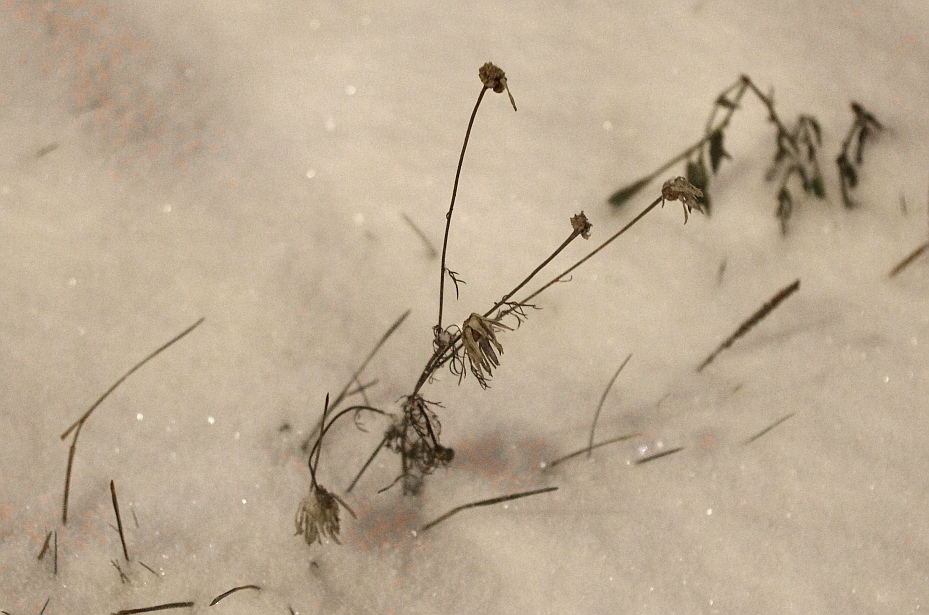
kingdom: Plantae
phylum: Tracheophyta
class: Magnoliopsida
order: Asterales
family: Asteraceae
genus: Tripleurospermum
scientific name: Tripleurospermum inodorum
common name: Scentless mayweed
